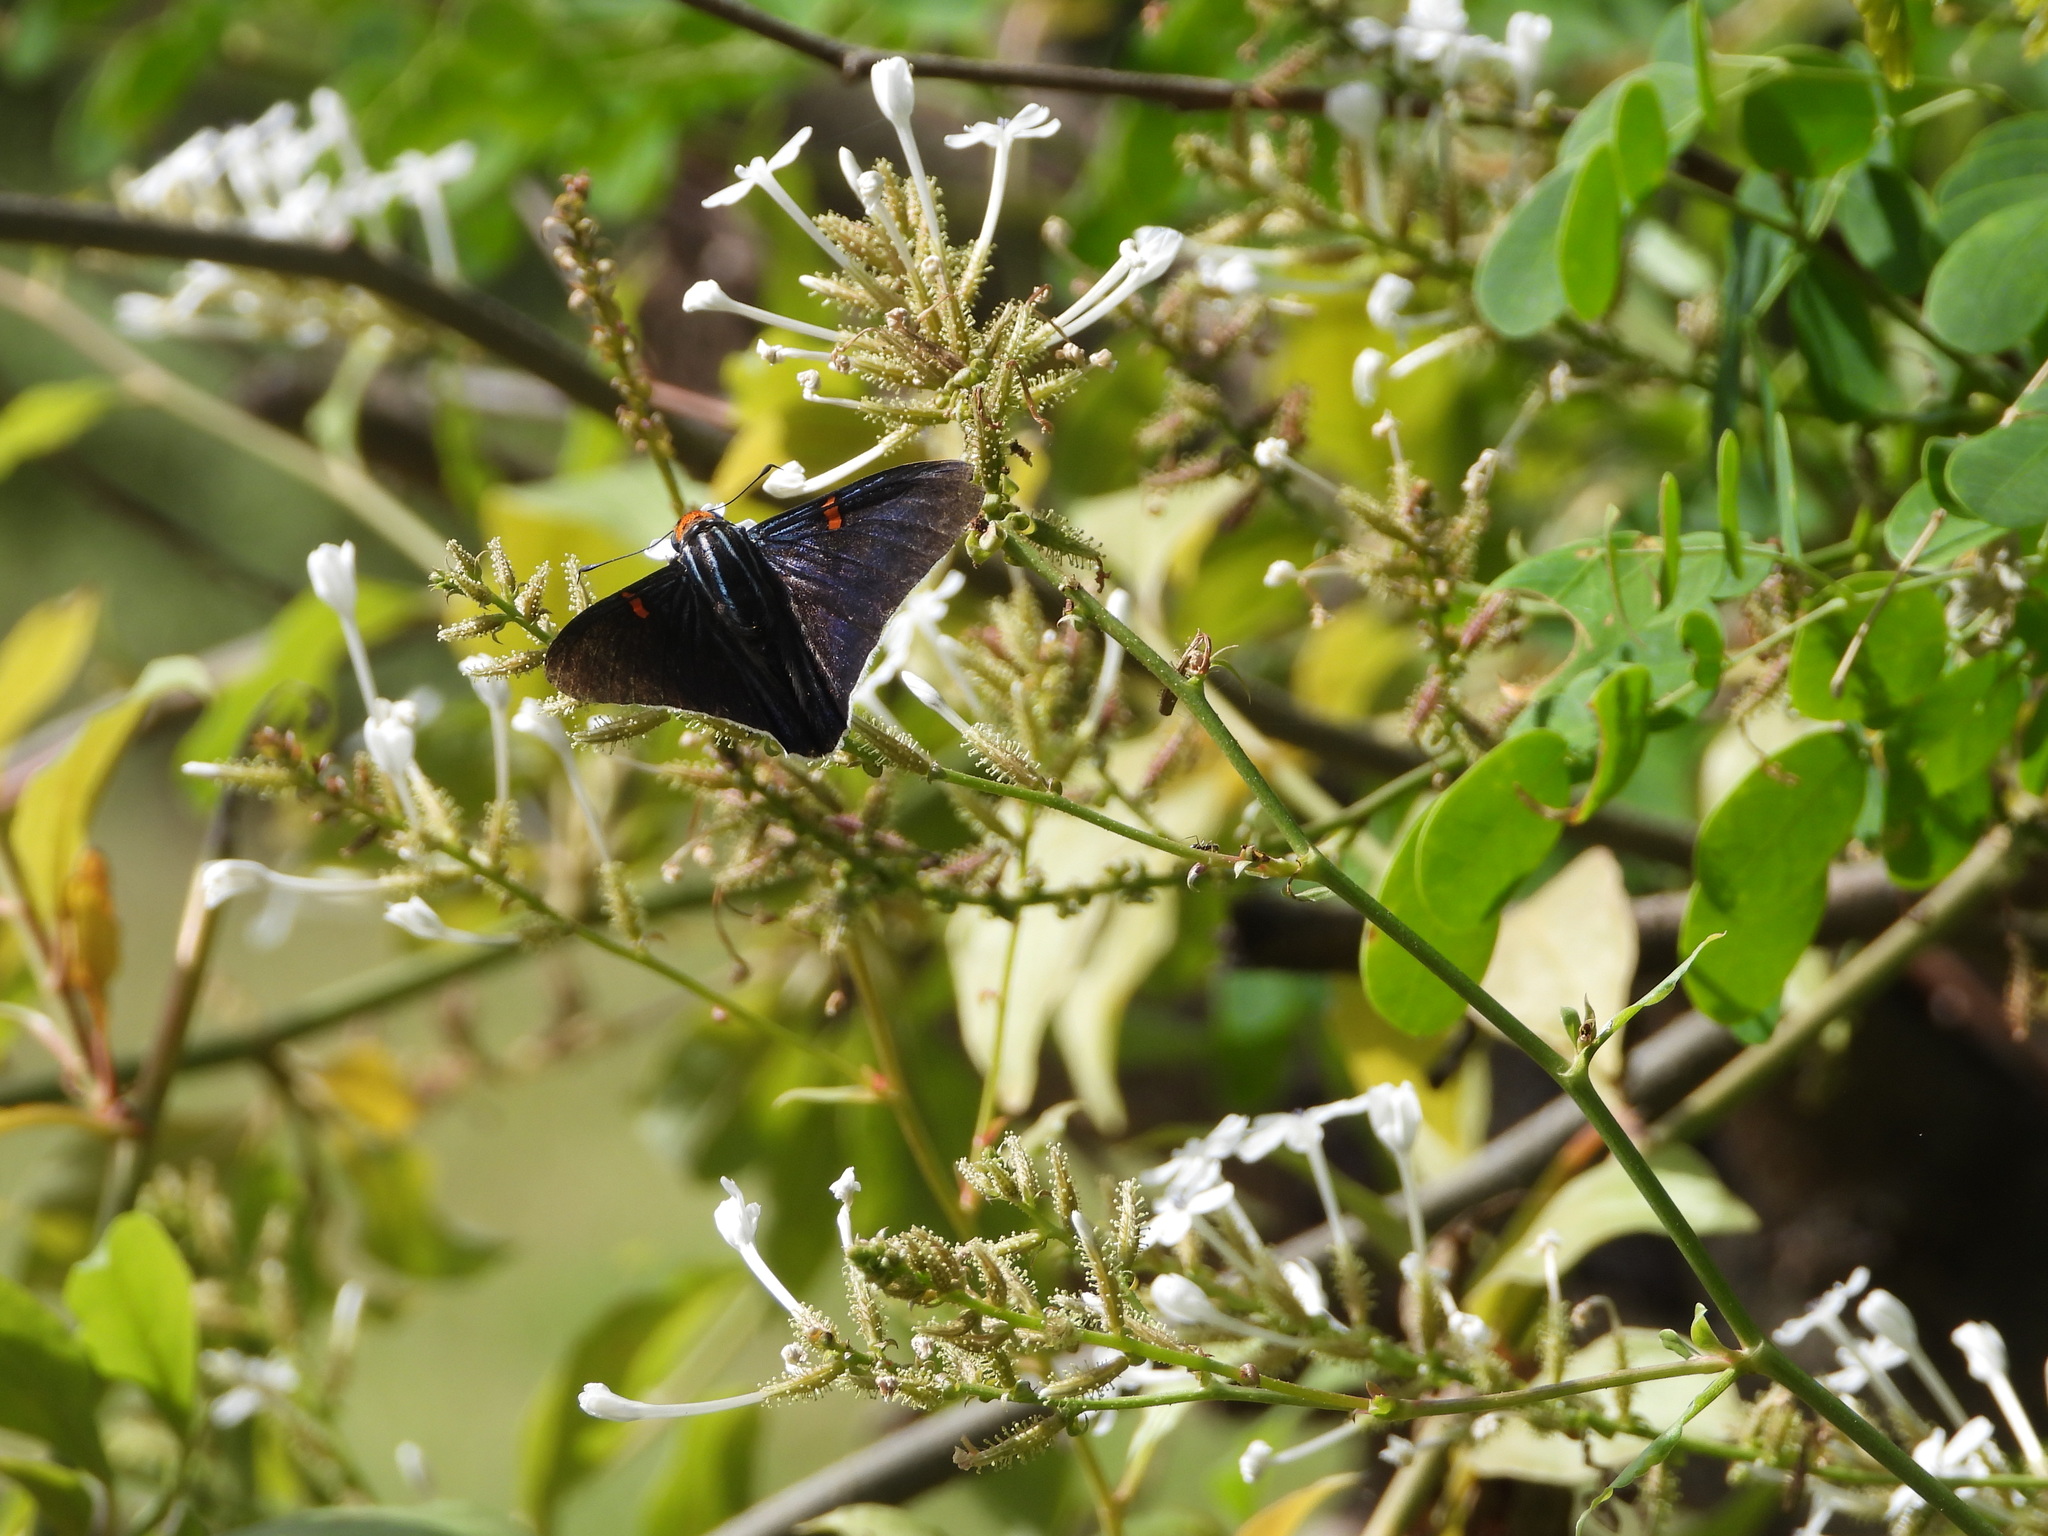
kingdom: Animalia
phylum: Arthropoda
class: Insecta
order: Lepidoptera
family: Hesperiidae
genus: Phocides
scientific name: Phocides lilea
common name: Guava skipper
